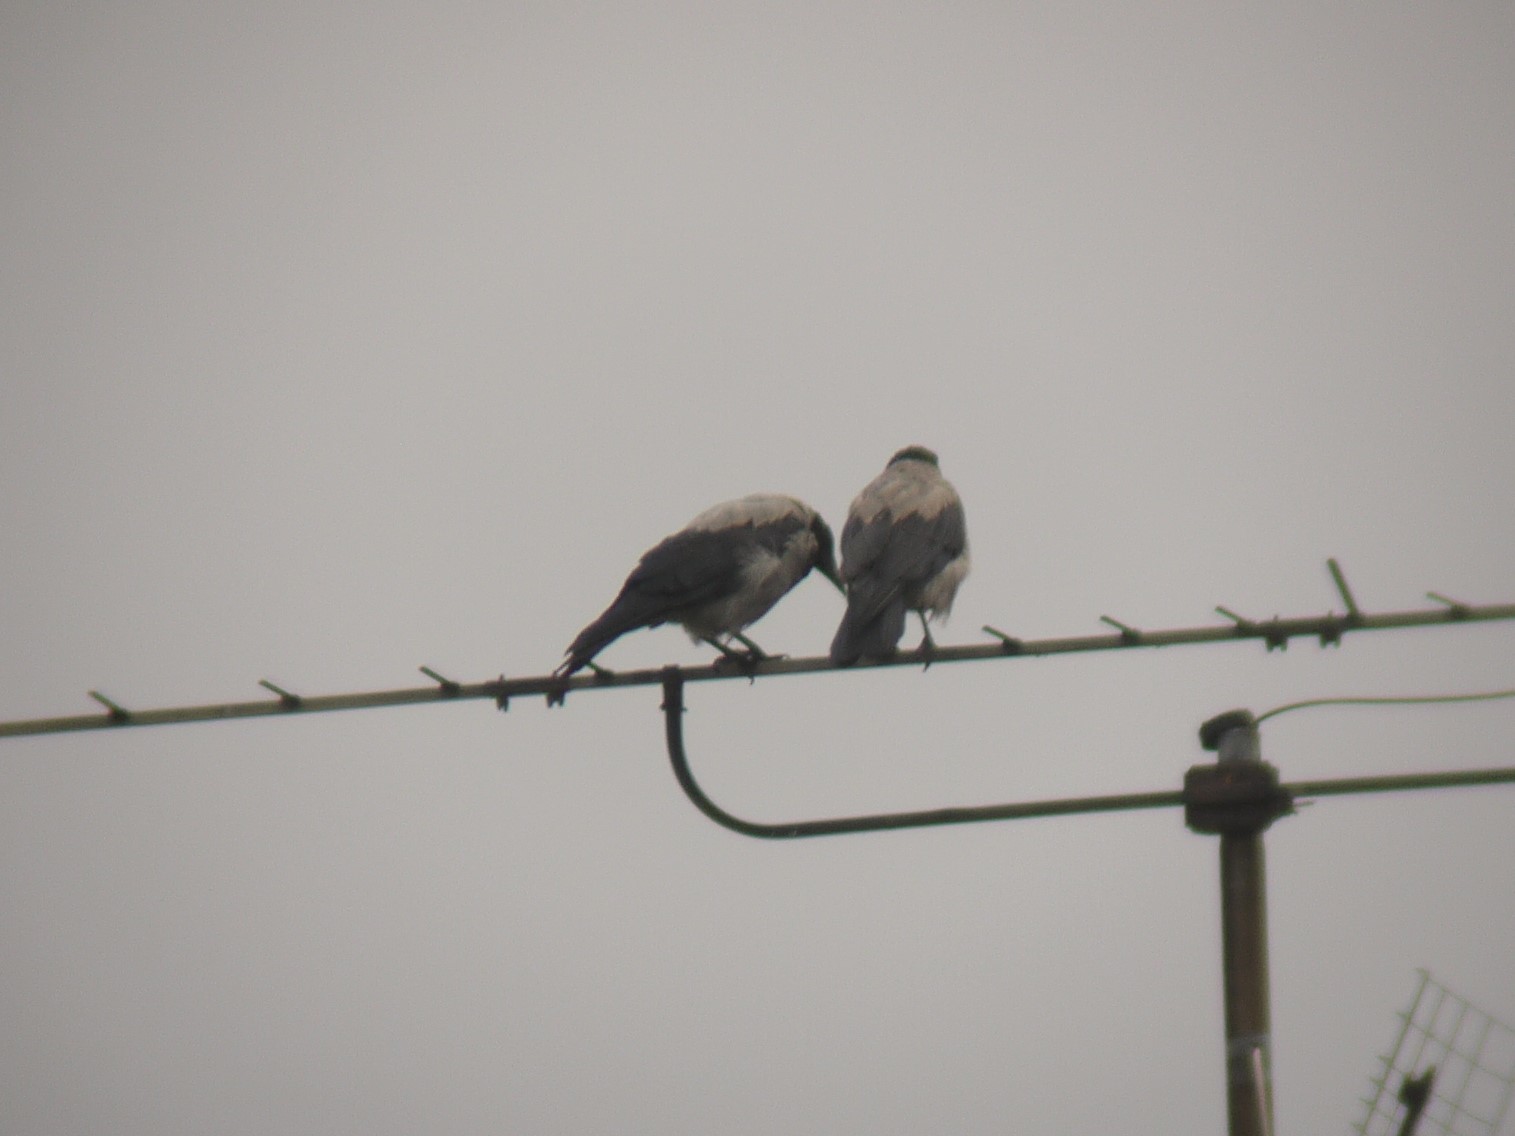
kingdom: Animalia
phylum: Chordata
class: Aves
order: Passeriformes
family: Corvidae
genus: Corvus
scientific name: Corvus cornix
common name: Hooded crow
